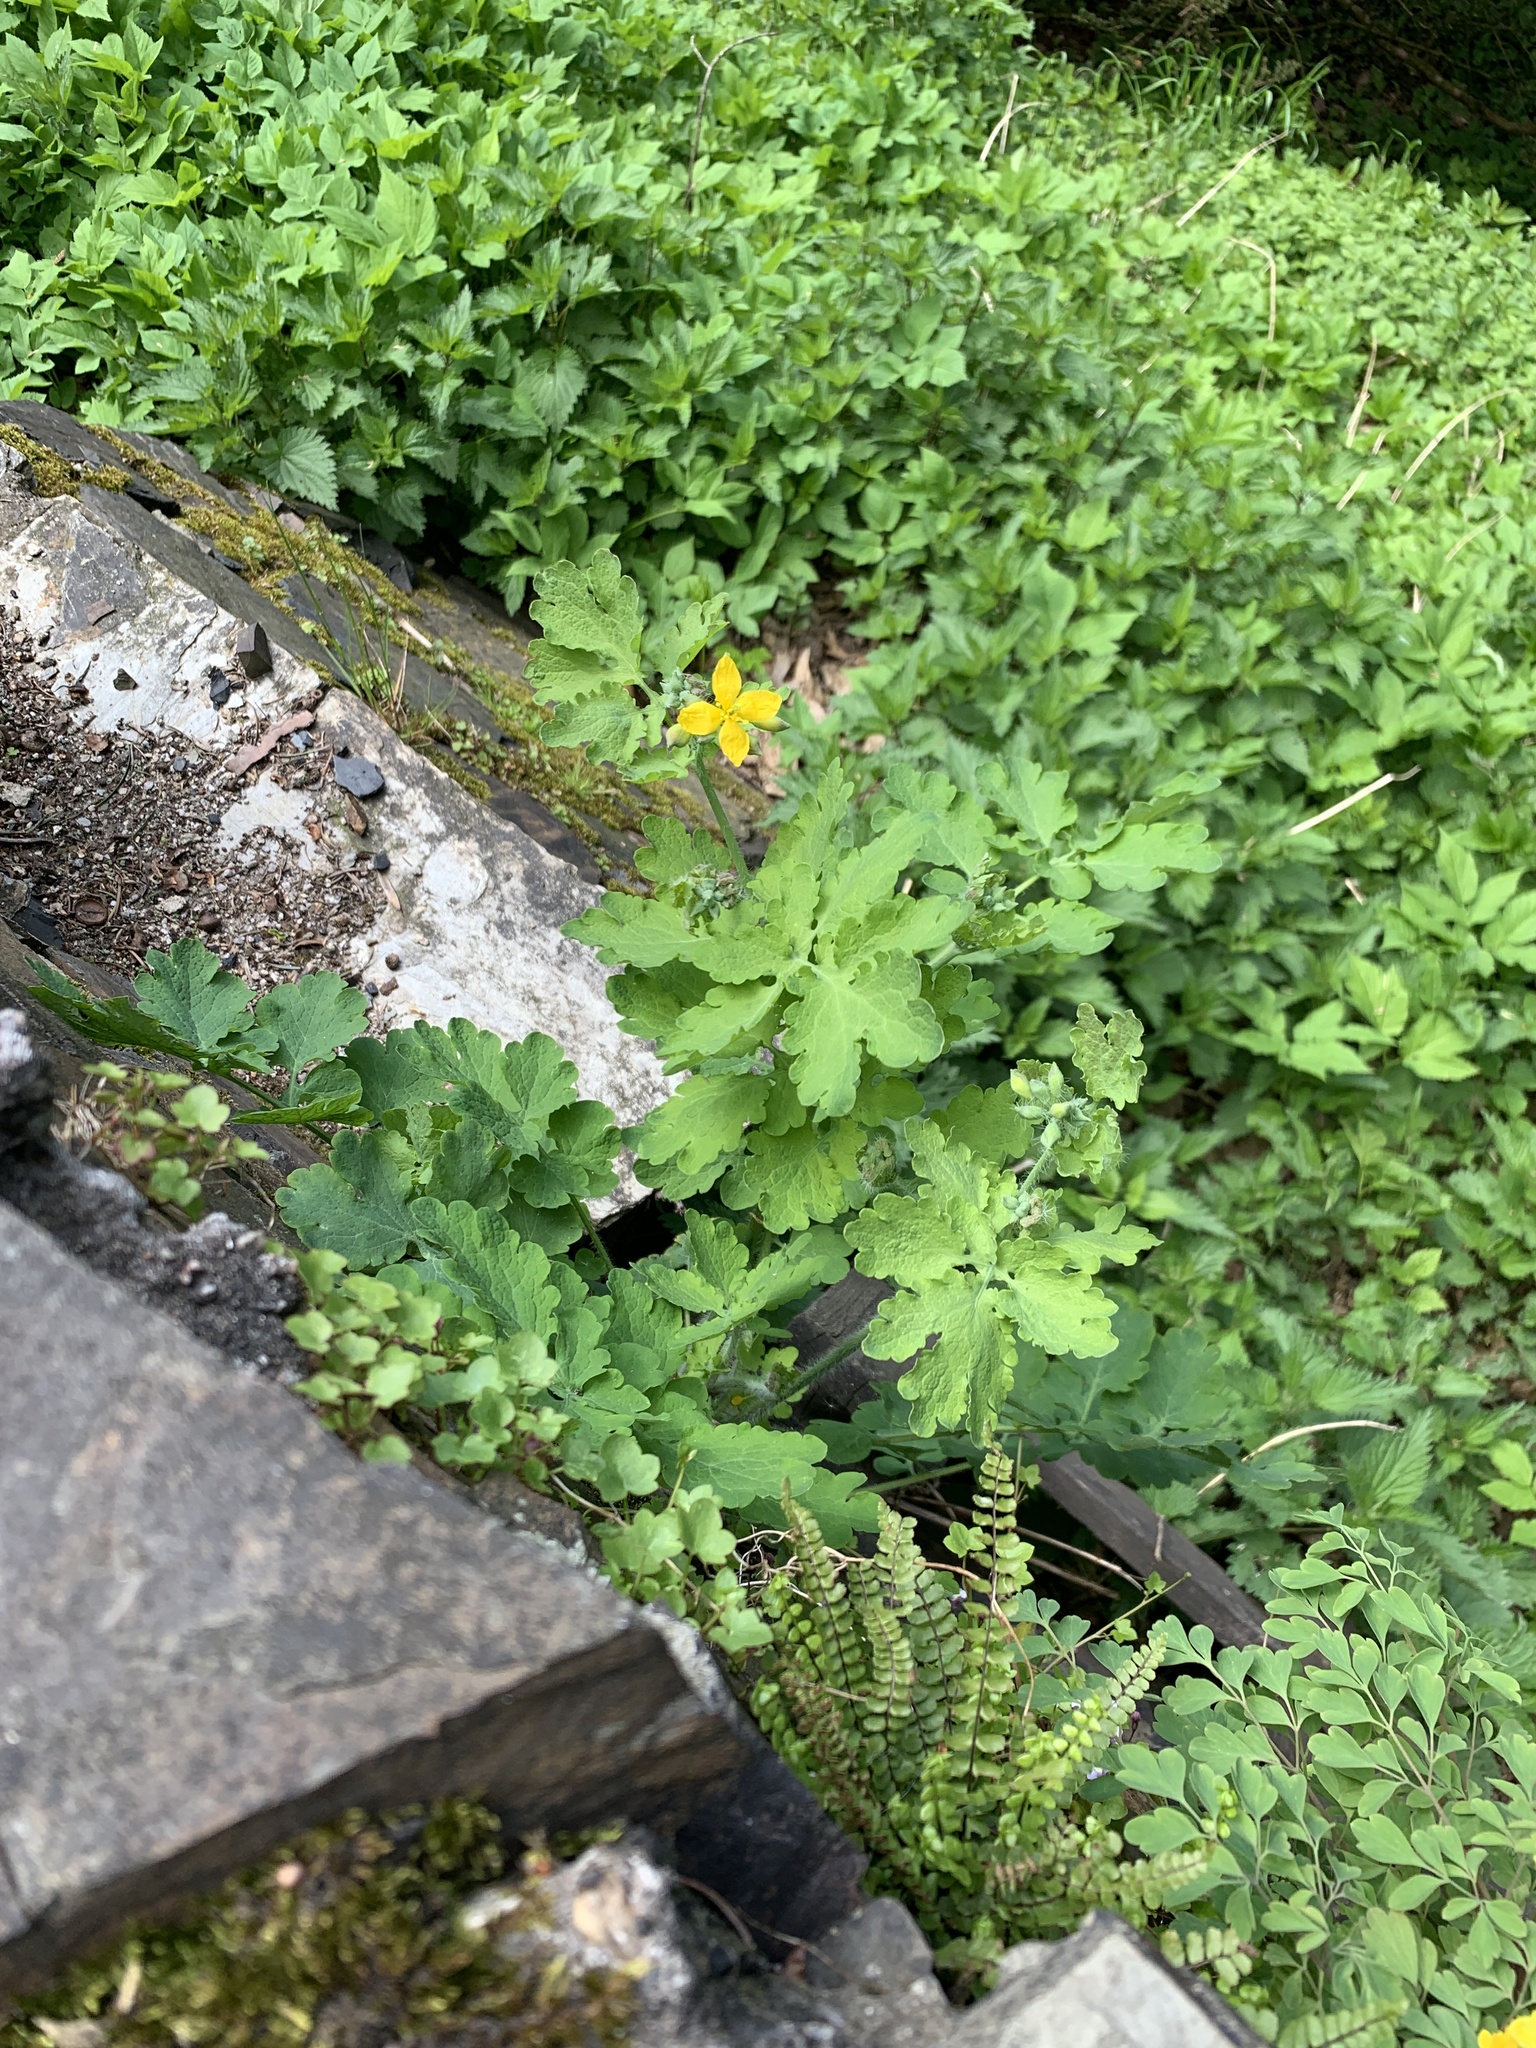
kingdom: Plantae
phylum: Tracheophyta
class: Magnoliopsida
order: Ranunculales
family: Papaveraceae
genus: Chelidonium
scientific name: Chelidonium majus
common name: Greater celandine
